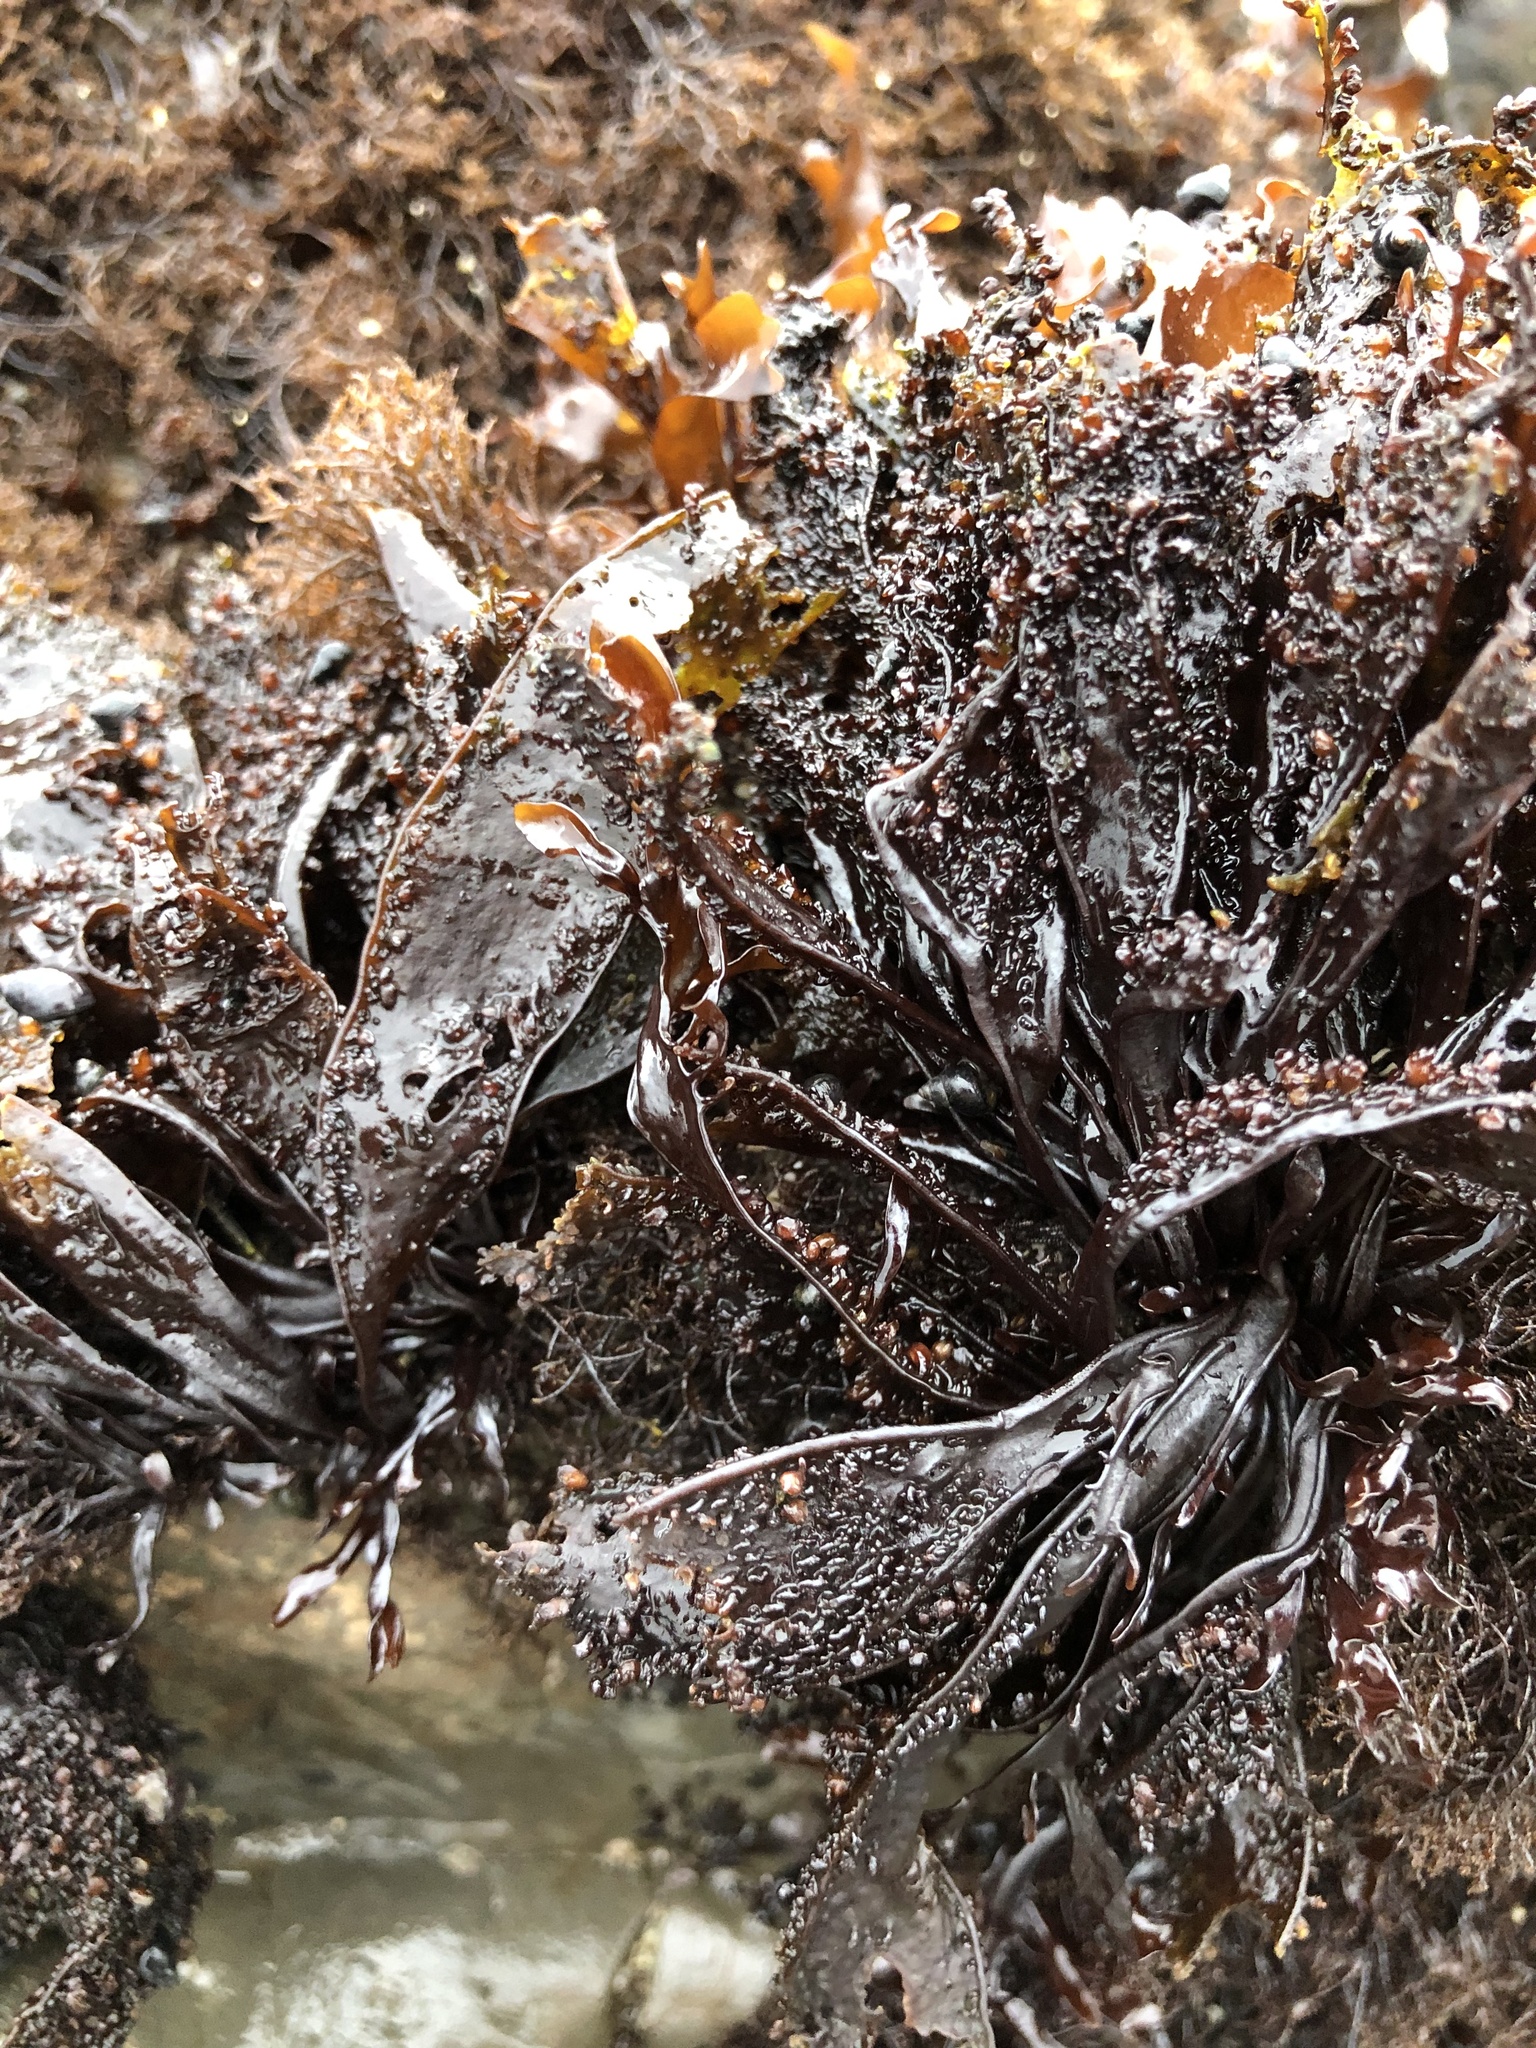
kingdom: Plantae
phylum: Rhodophyta
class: Florideophyceae
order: Gigartinales
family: Phyllophoraceae
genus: Mastocarpus
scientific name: Mastocarpus papillatus
